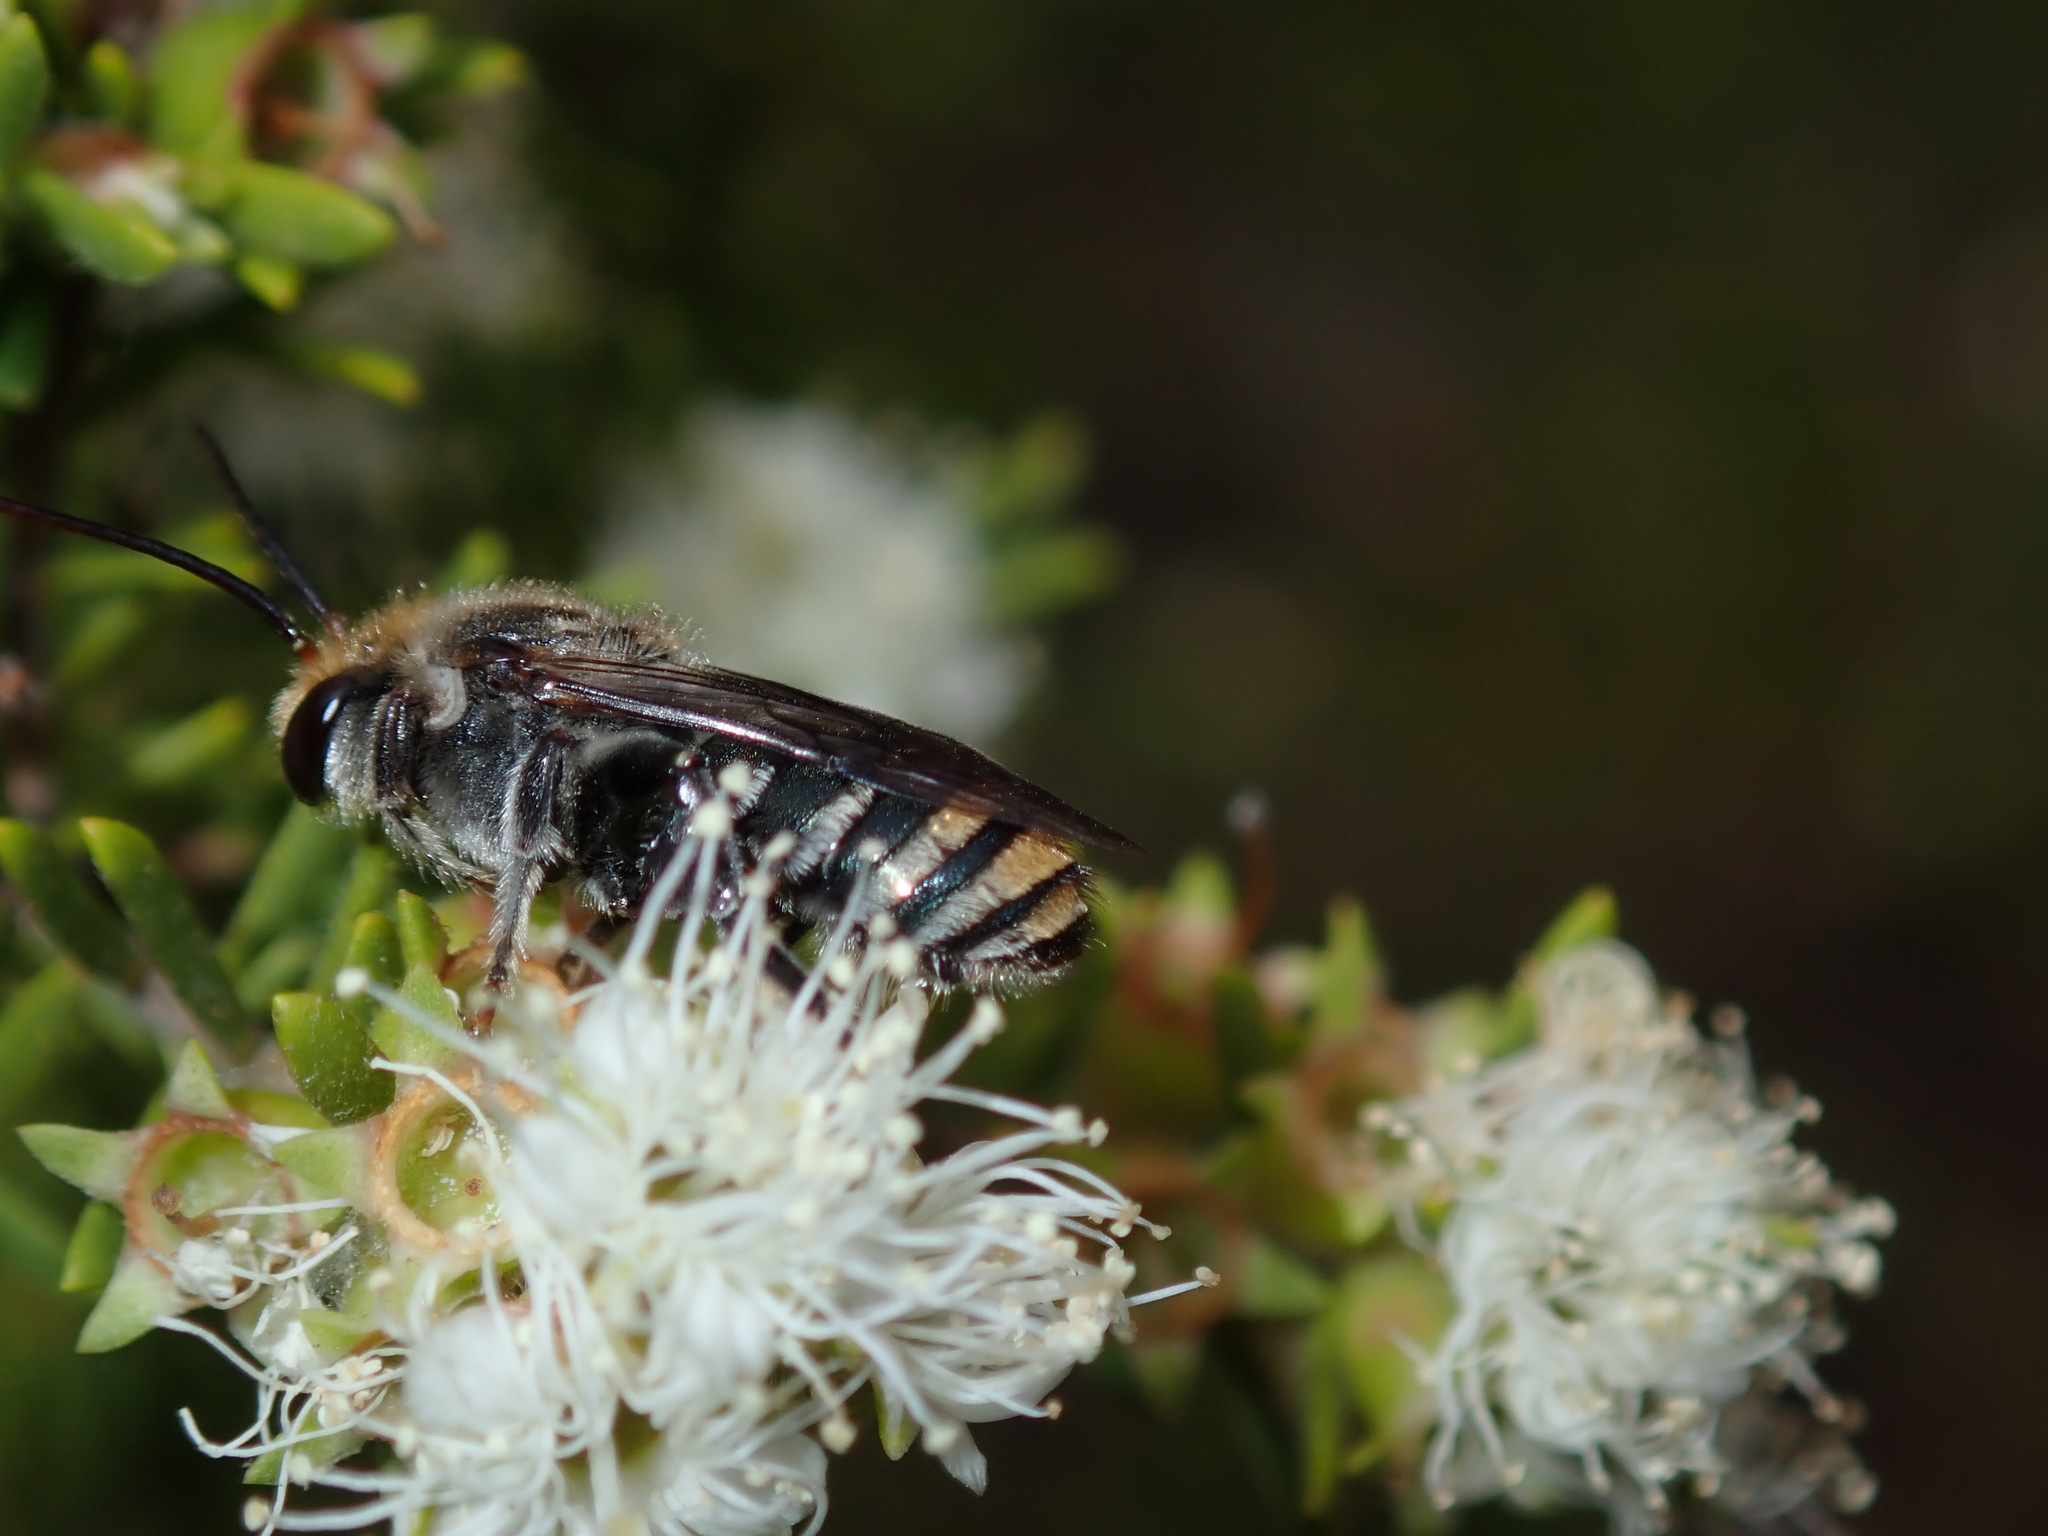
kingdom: Animalia
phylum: Arthropoda
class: Insecta
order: Hymenoptera
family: Halictidae
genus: Lipotriches
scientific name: Lipotriches australica
